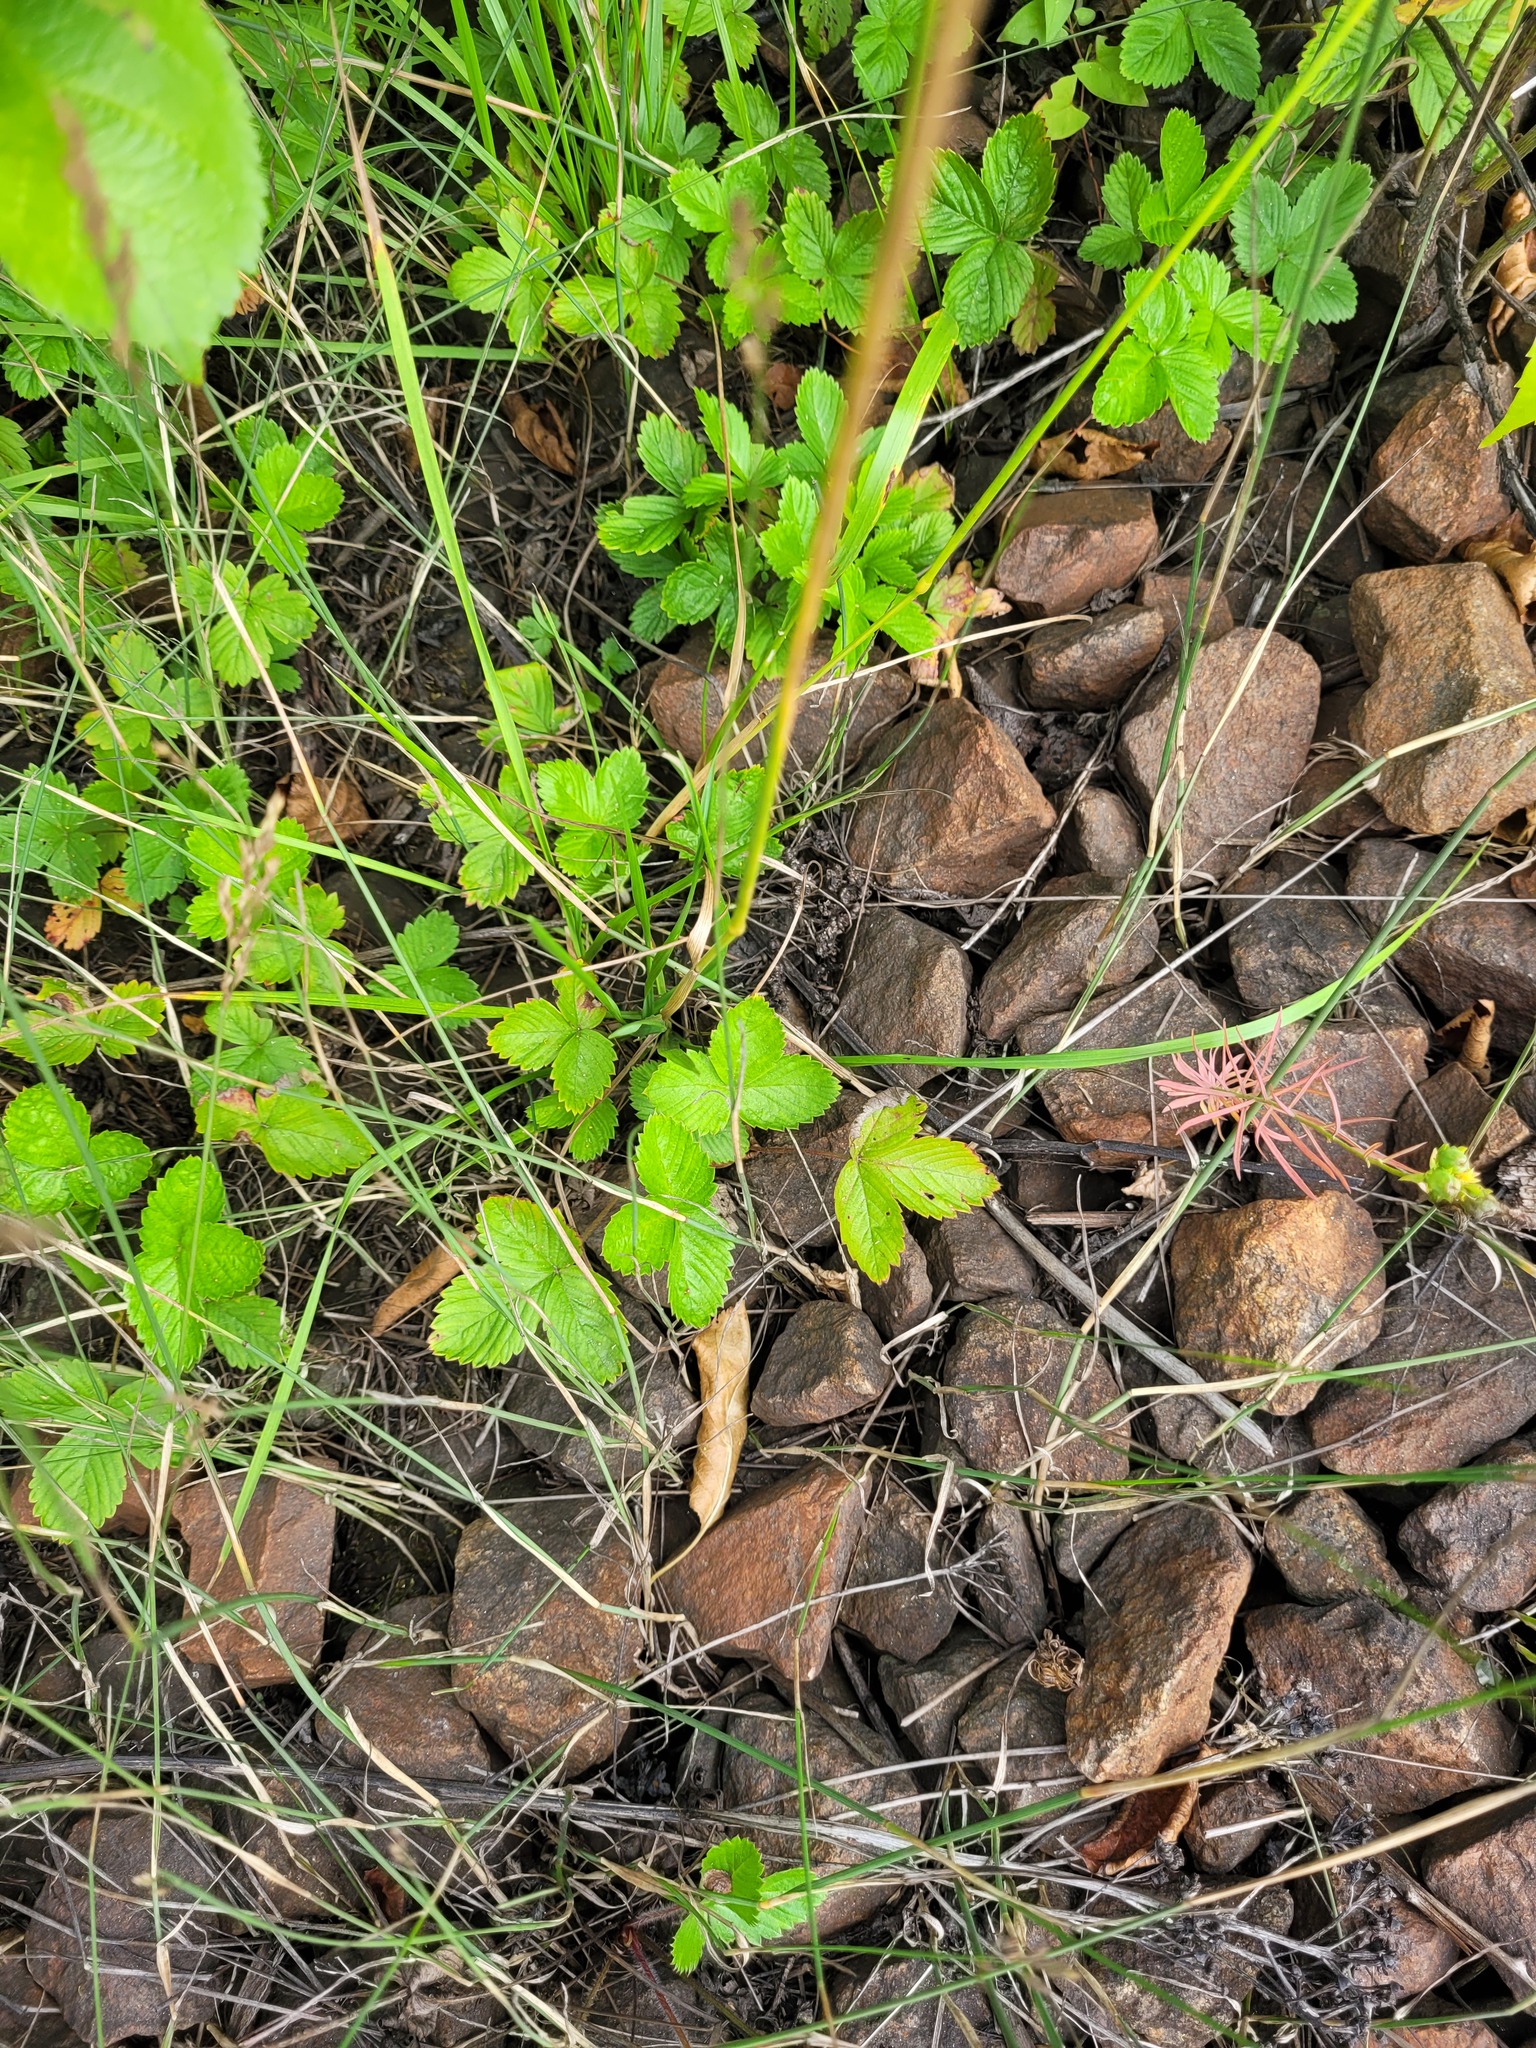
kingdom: Plantae
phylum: Tracheophyta
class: Magnoliopsida
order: Rosales
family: Rosaceae
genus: Fragaria
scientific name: Fragaria vesca
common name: Wild strawberry
